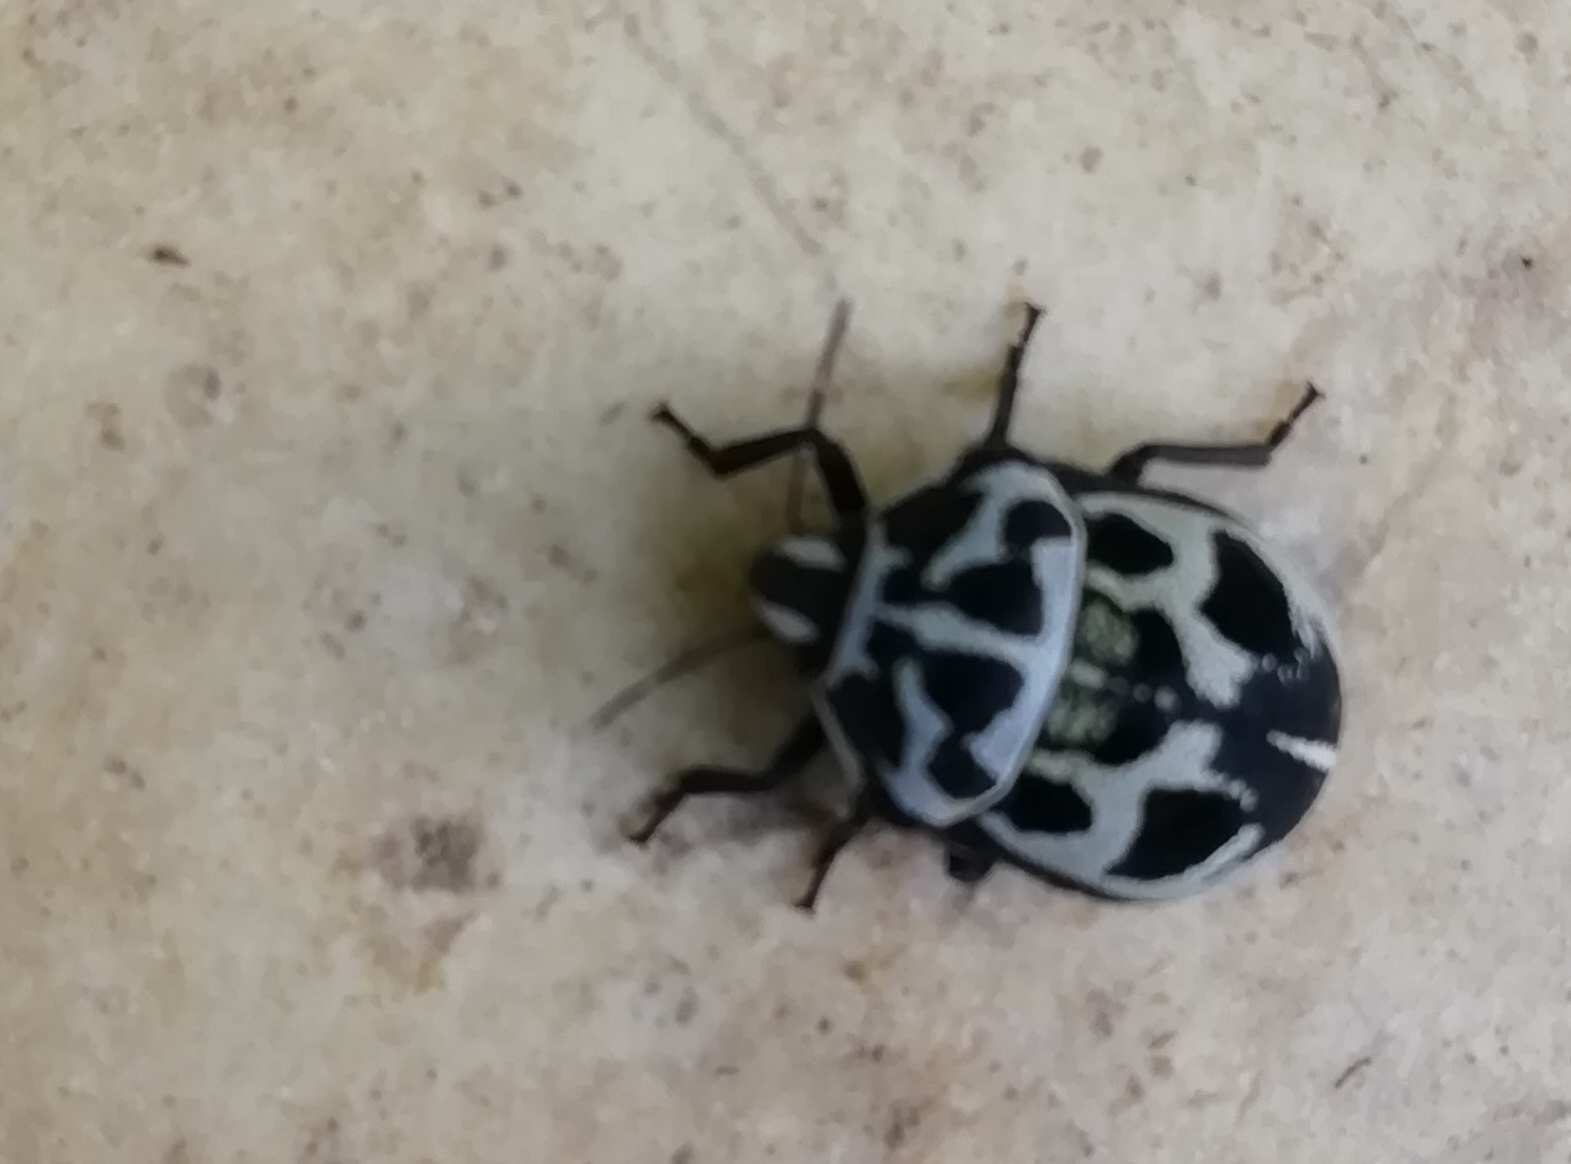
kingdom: Animalia
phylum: Arthropoda
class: Insecta
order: Hemiptera
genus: Deroplax
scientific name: Deroplax silphoides
